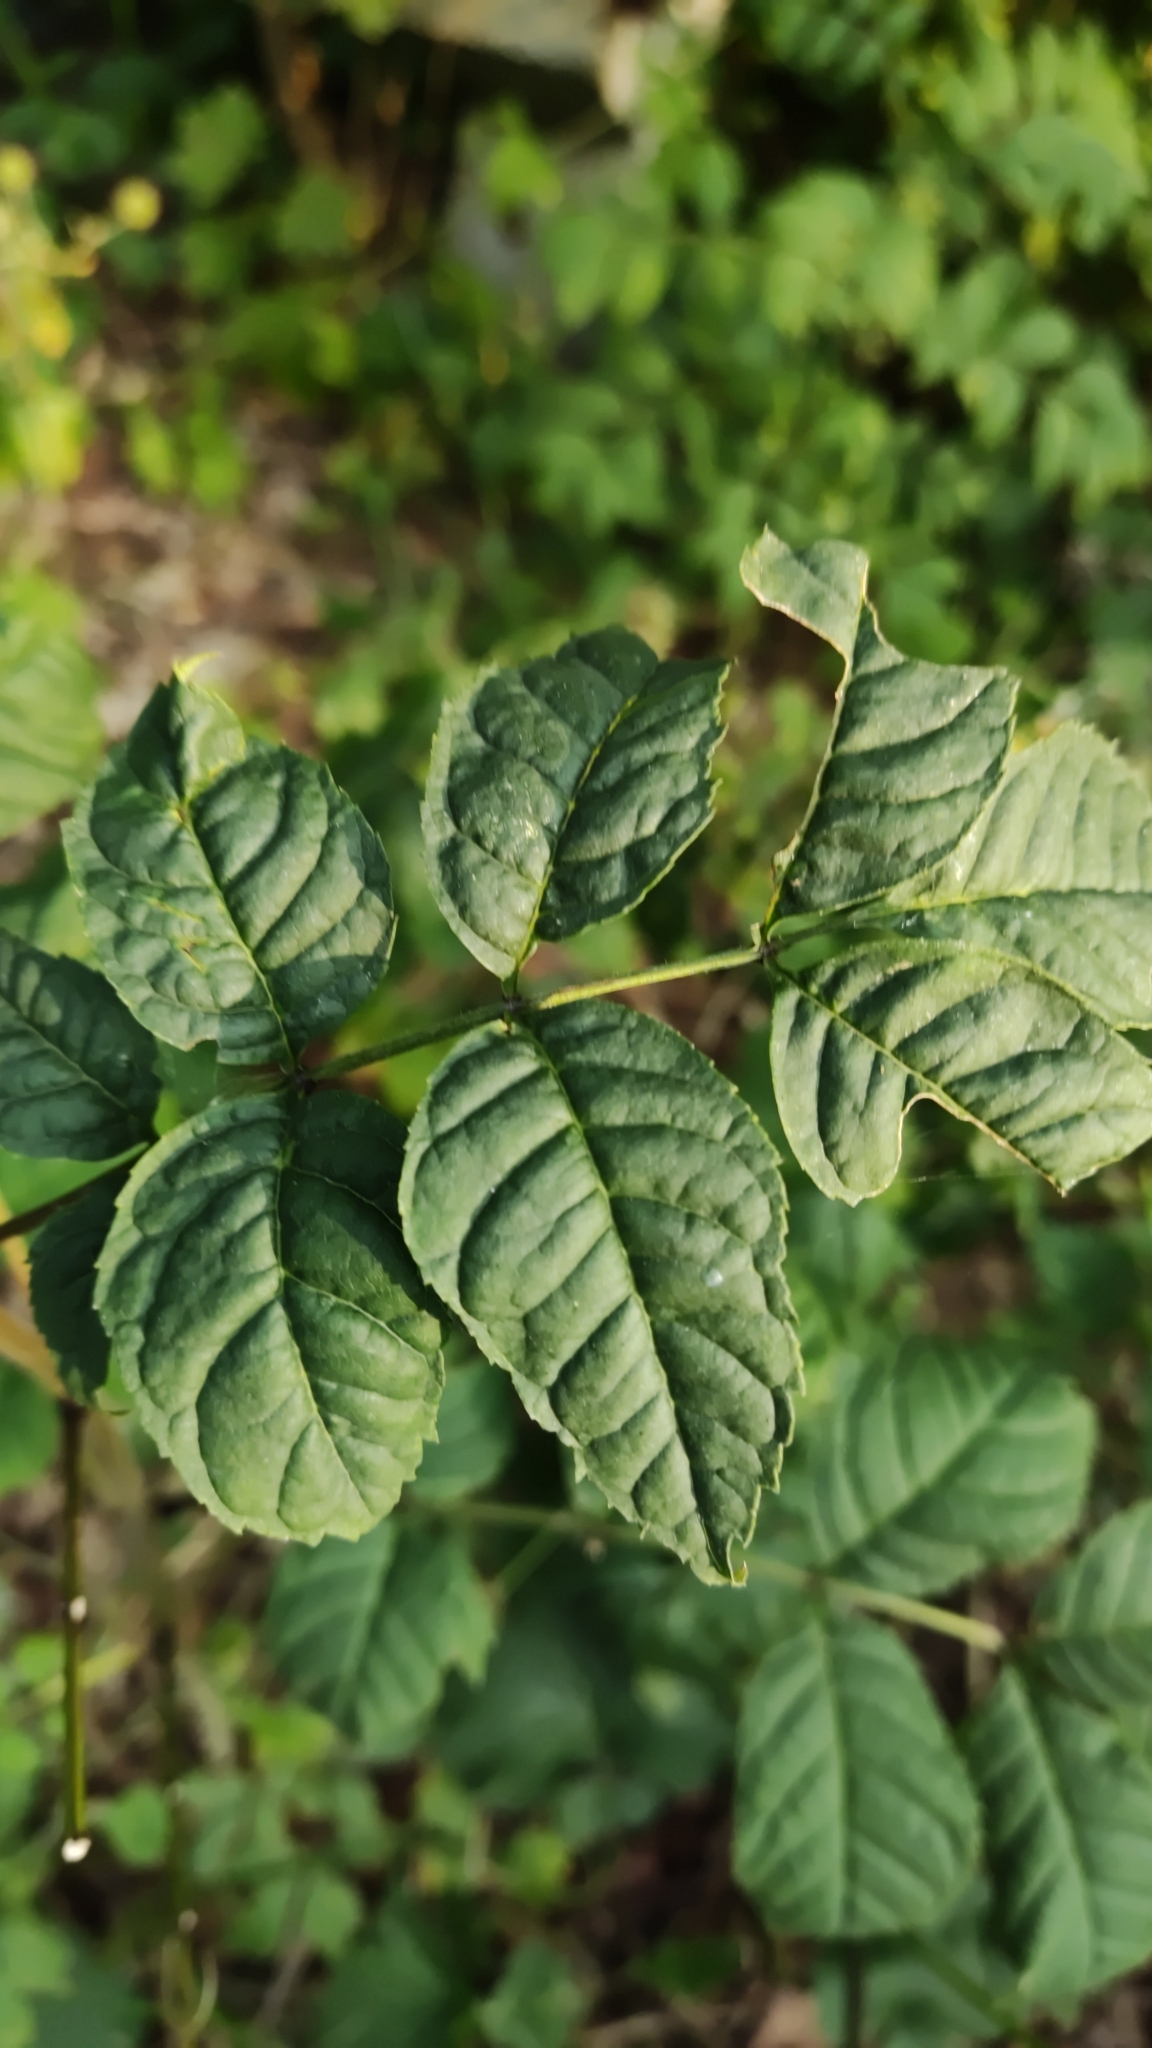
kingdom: Plantae
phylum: Tracheophyta
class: Magnoliopsida
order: Lamiales
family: Oleaceae
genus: Fraxinus
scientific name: Fraxinus excelsior
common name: European ash
